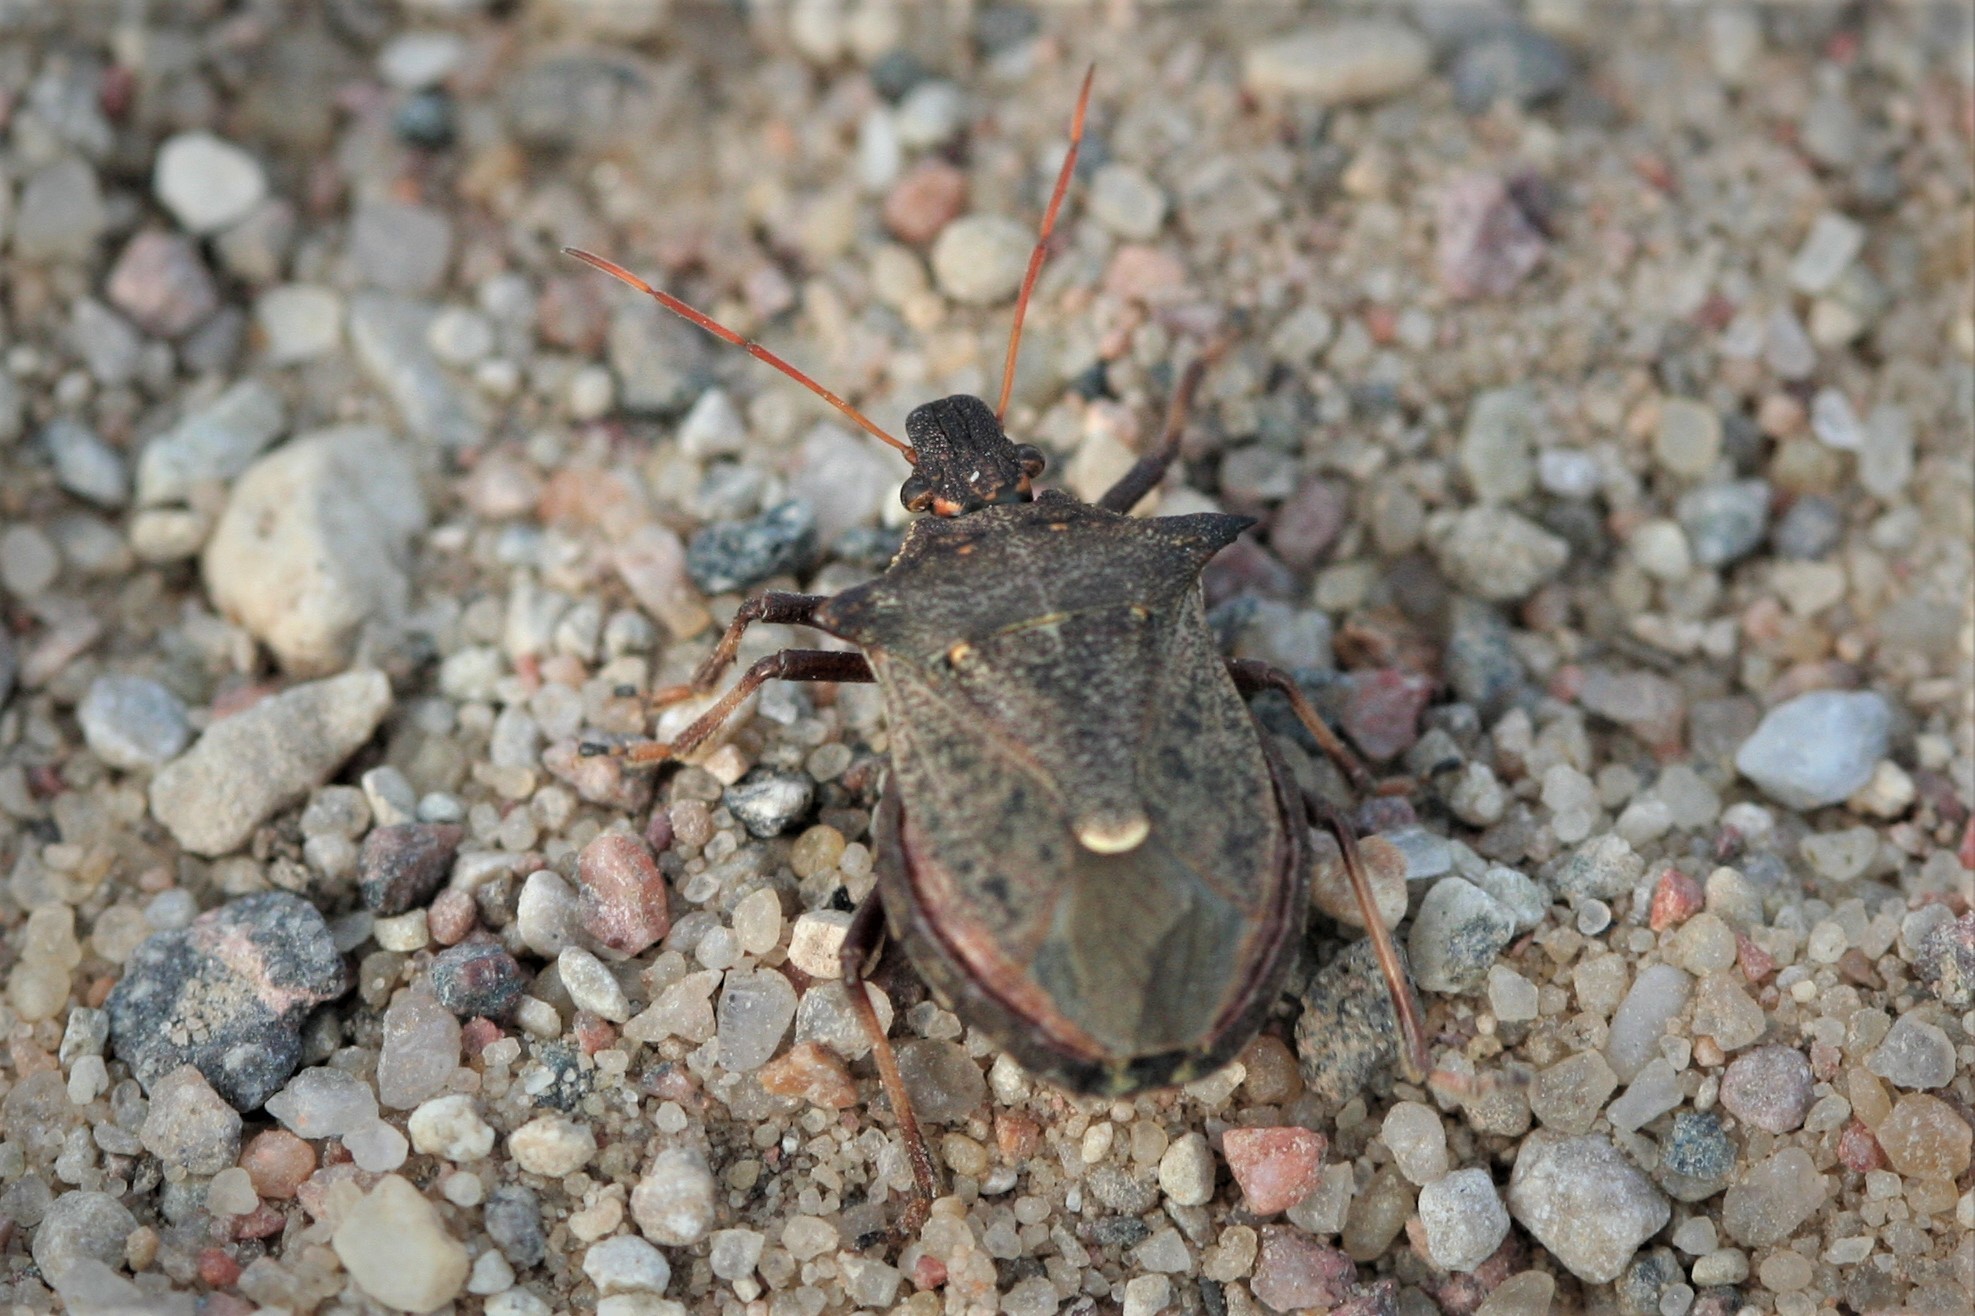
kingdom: Animalia
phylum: Arthropoda
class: Insecta
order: Hemiptera
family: Pentatomidae
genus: Picromerus
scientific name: Picromerus bidens
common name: Spiked shieldbug
